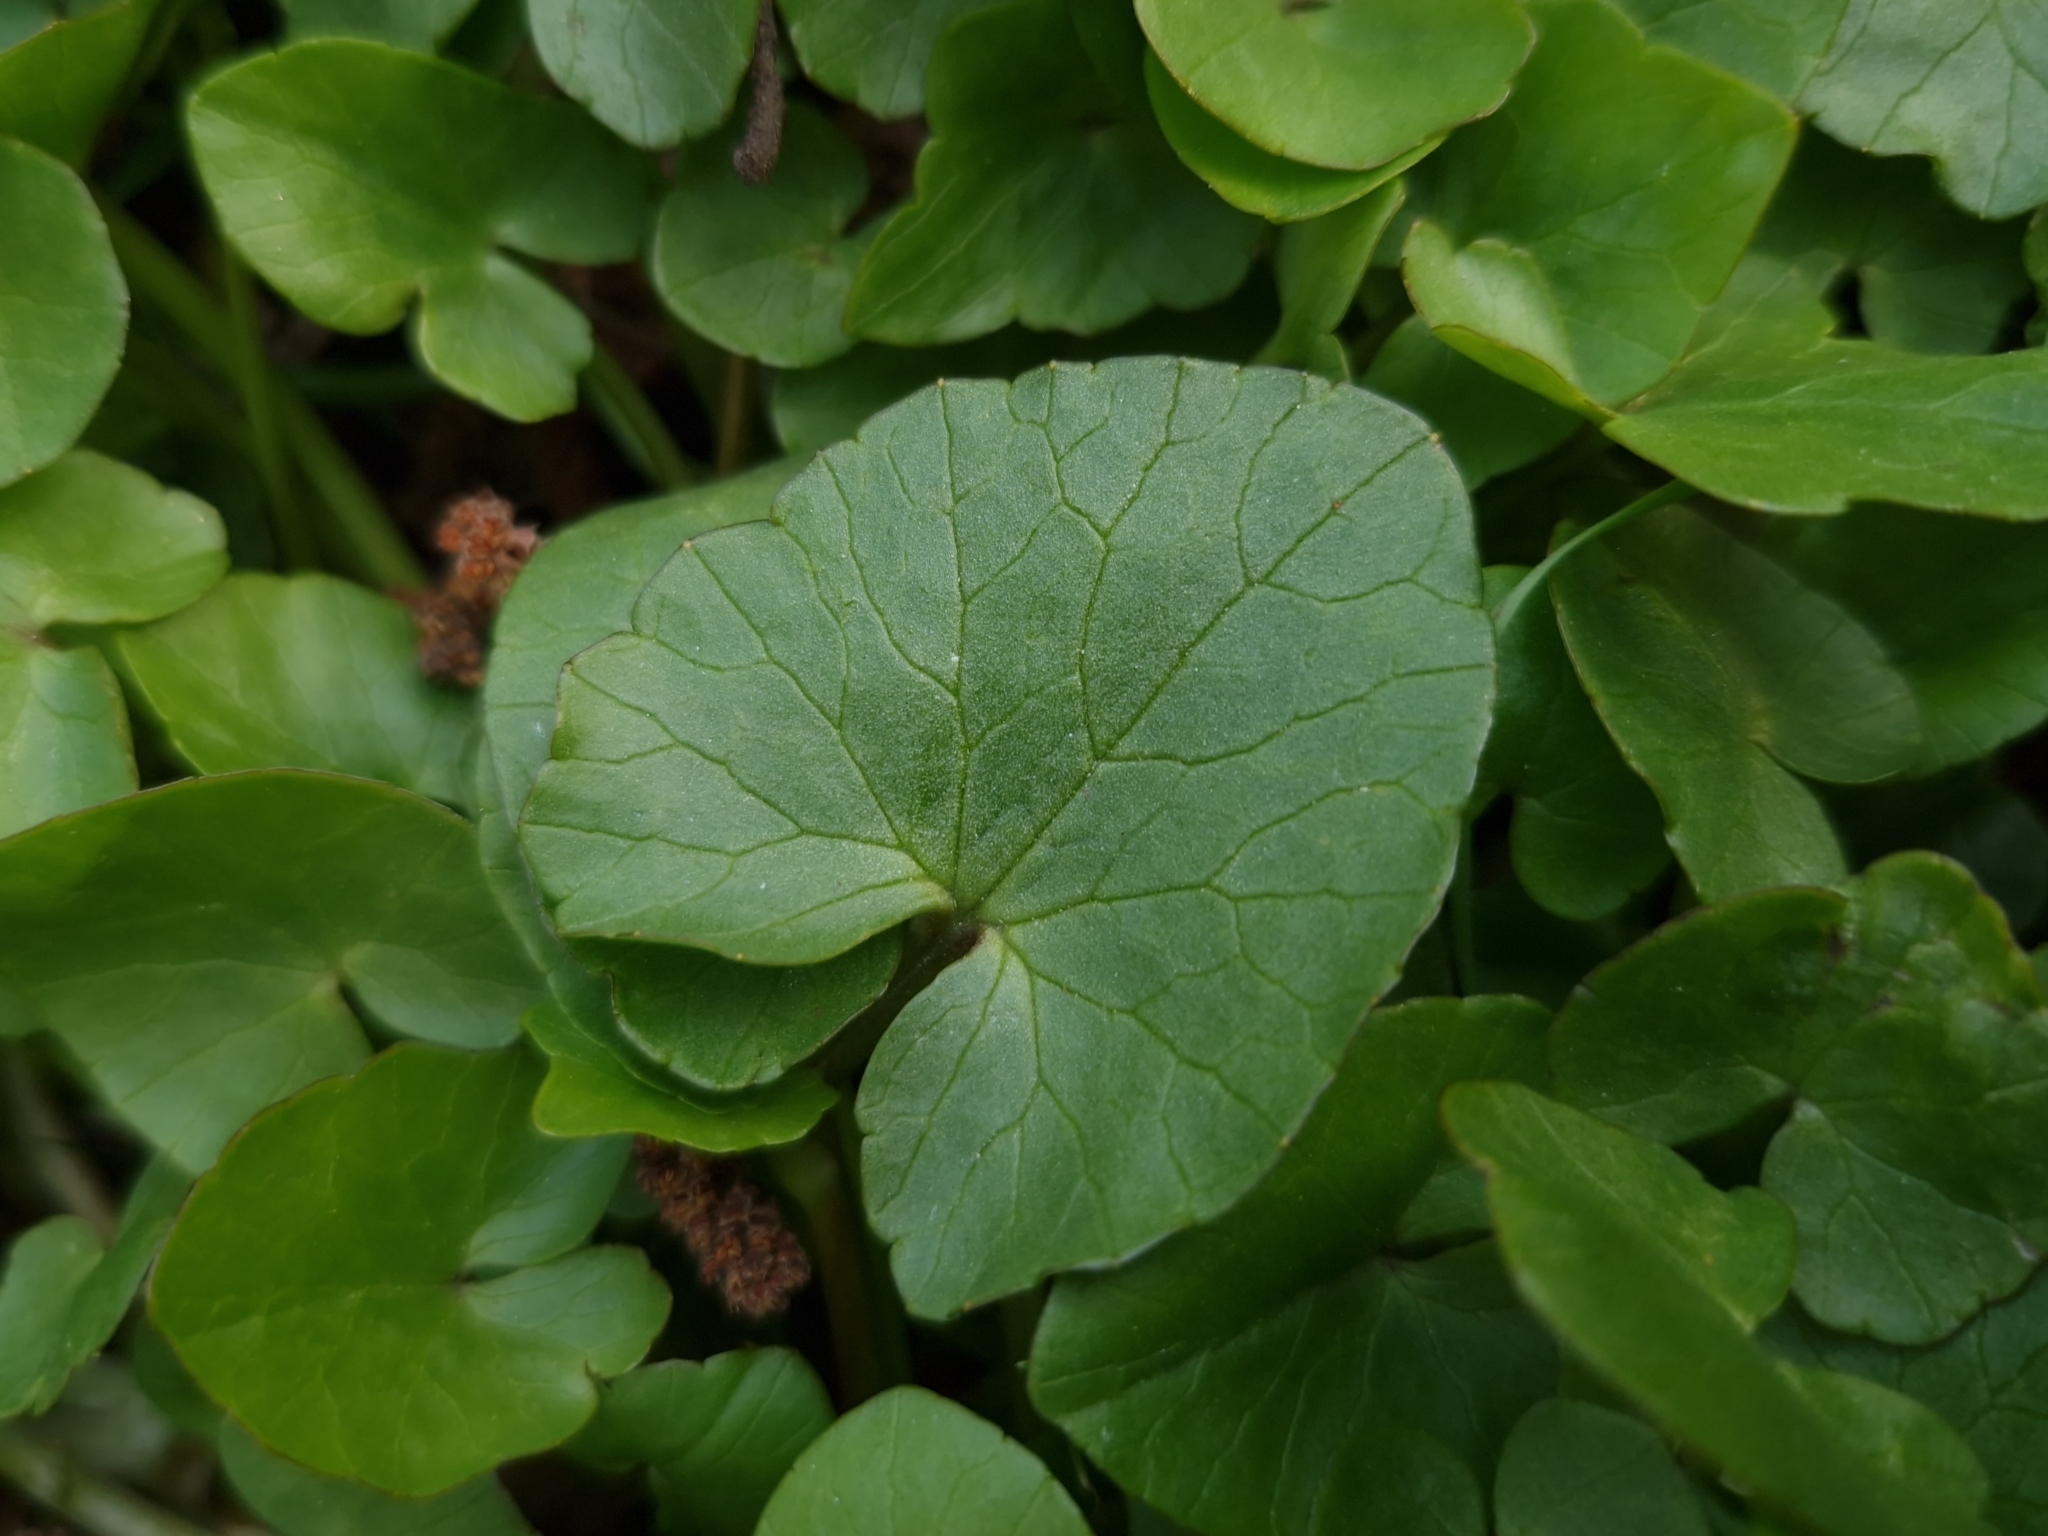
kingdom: Plantae
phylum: Tracheophyta
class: Magnoliopsida
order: Ranunculales
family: Ranunculaceae
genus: Ficaria
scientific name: Ficaria verna
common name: Lesser celandine
